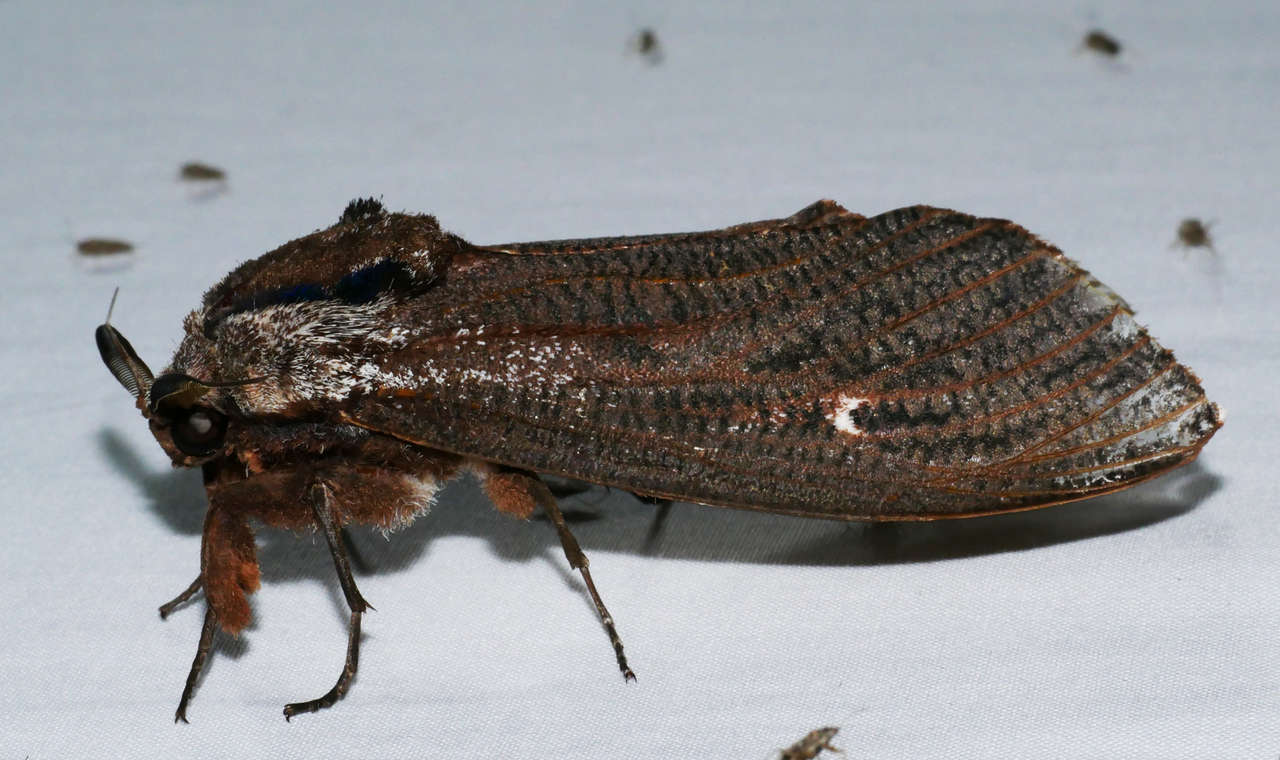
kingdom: Animalia
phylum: Arthropoda
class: Insecta
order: Lepidoptera
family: Cossidae
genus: Endoxyla
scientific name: Endoxyla encalypti
